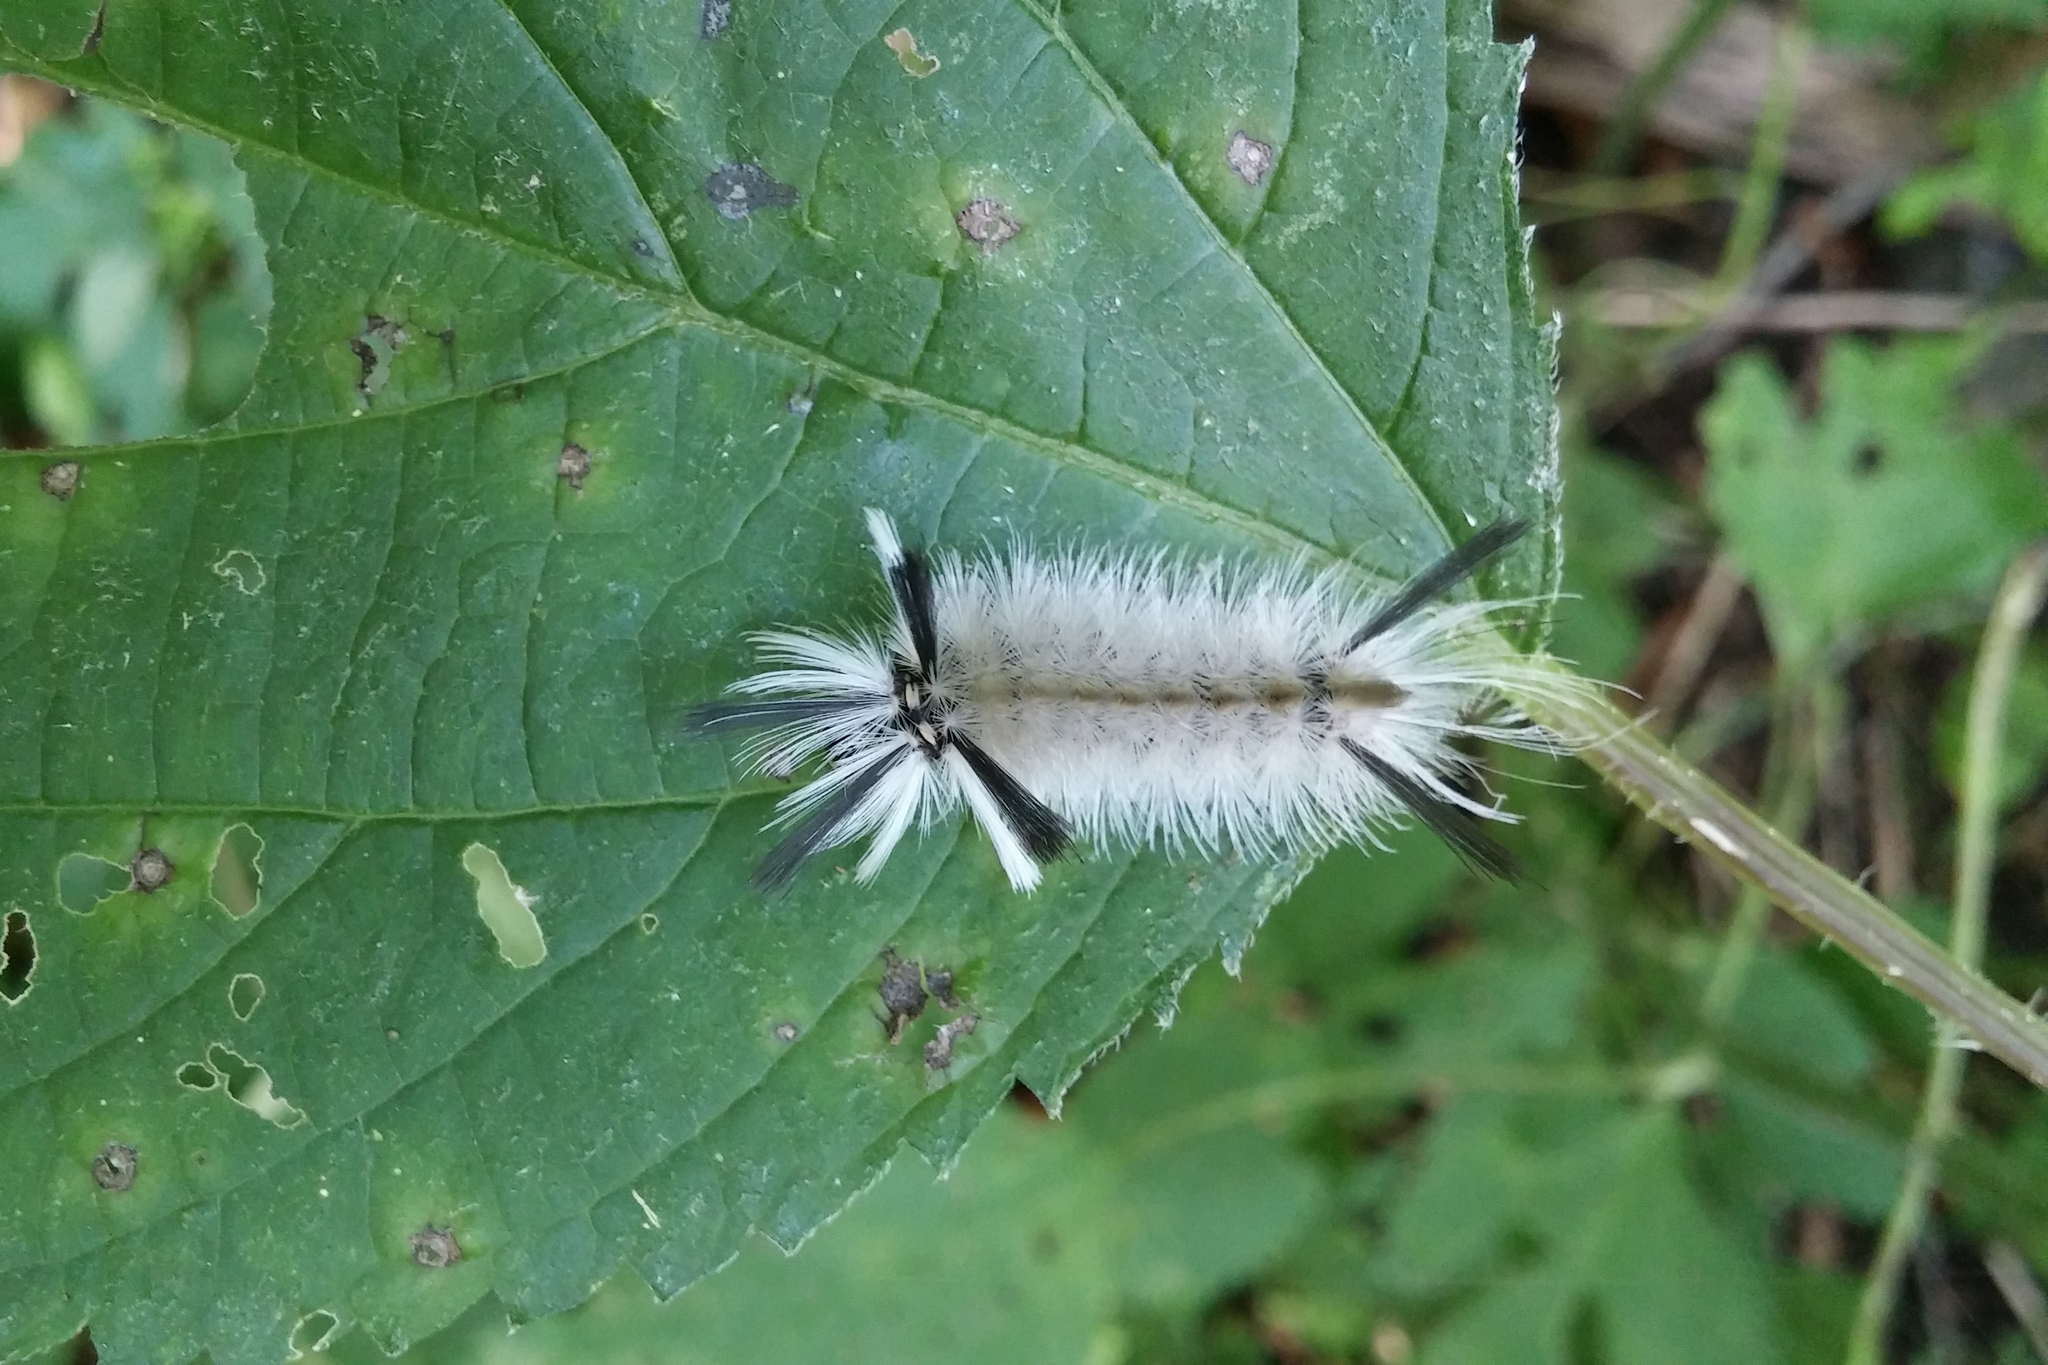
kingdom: Animalia
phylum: Arthropoda
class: Insecta
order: Lepidoptera
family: Erebidae
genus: Halysidota
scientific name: Halysidota tessellaris
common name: Banded tussock moth
